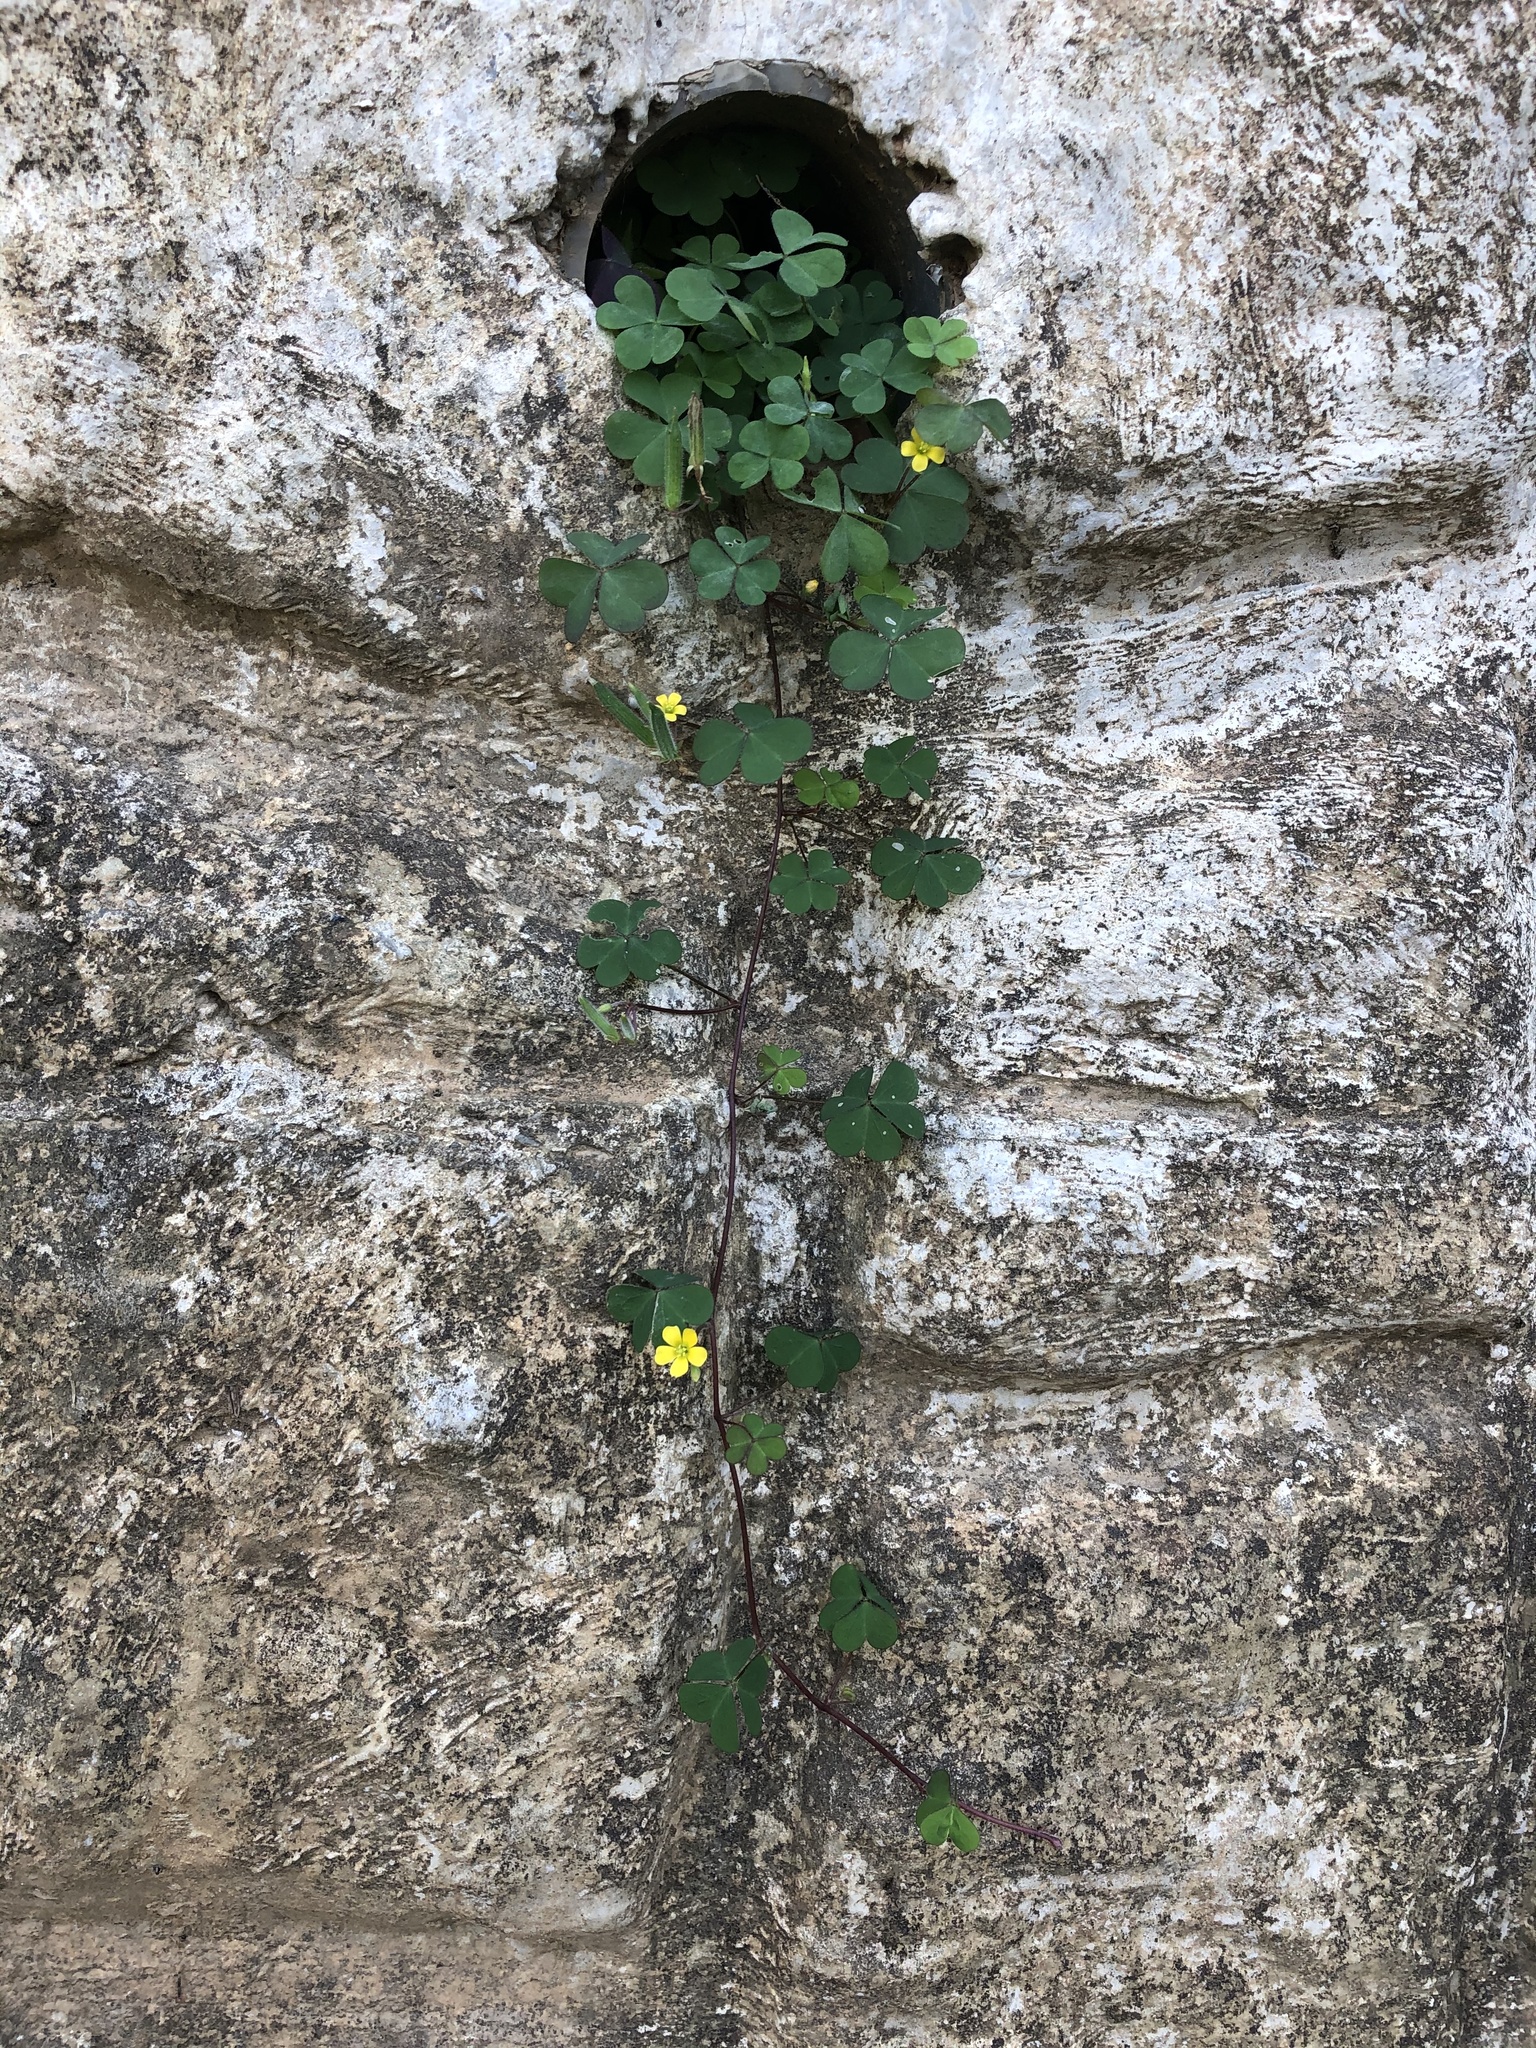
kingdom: Plantae
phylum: Tracheophyta
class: Magnoliopsida
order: Oxalidales
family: Oxalidaceae
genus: Oxalis
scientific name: Oxalis corniculata
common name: Procumbent yellow-sorrel
